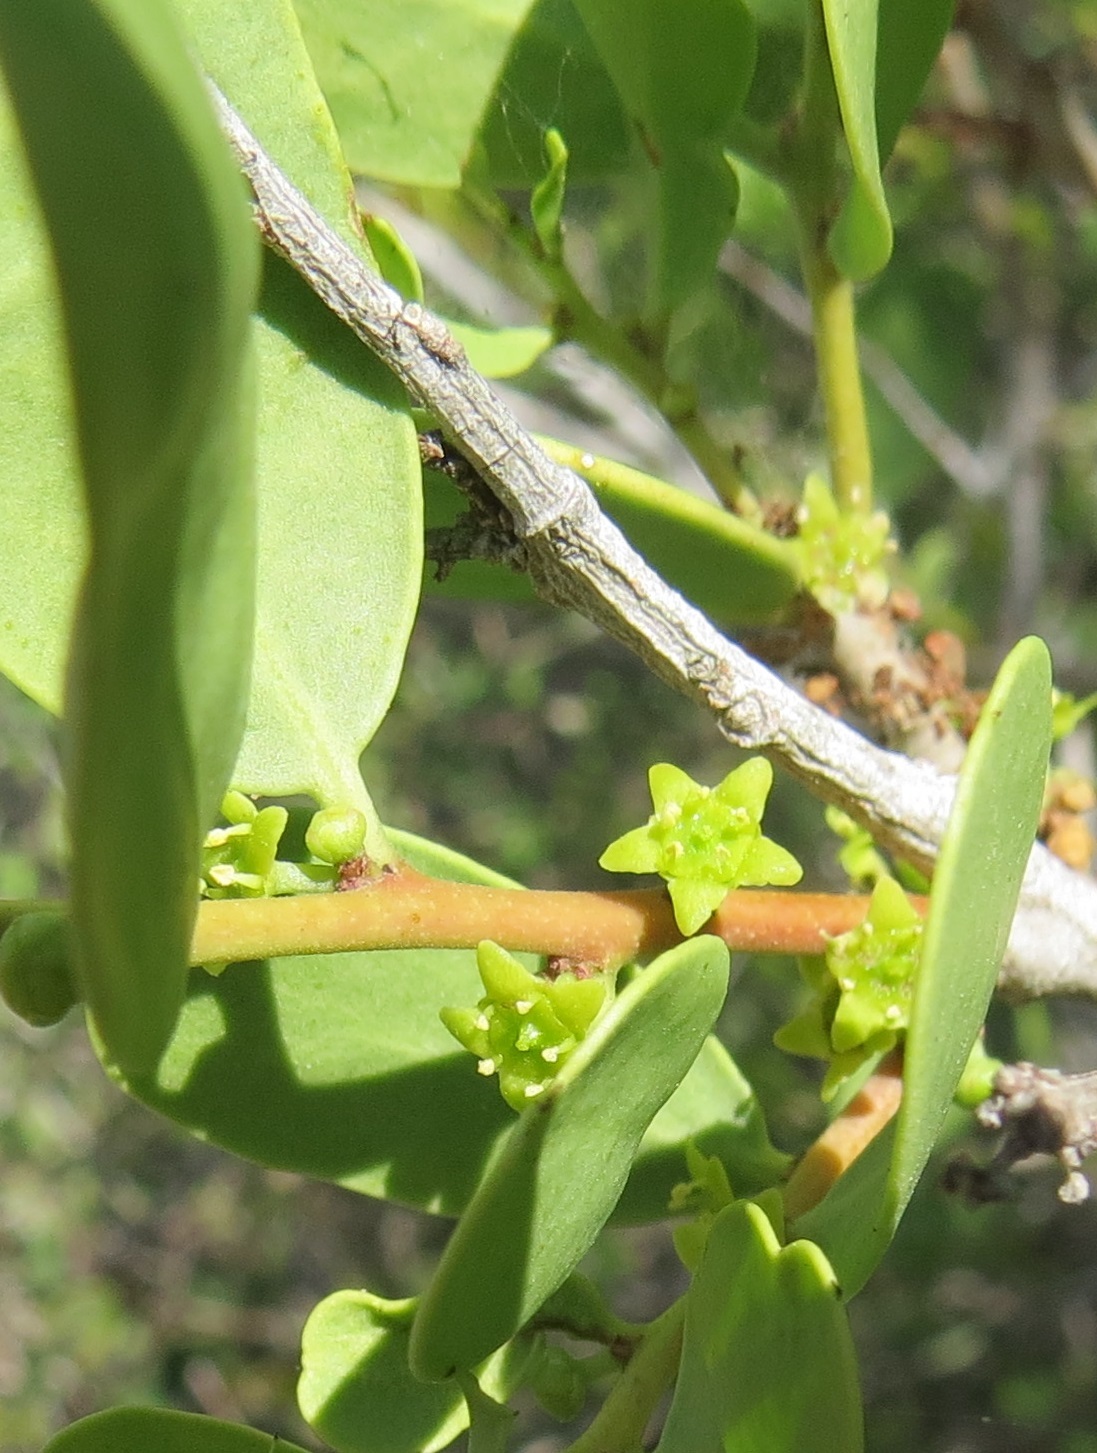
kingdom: Plantae
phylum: Tracheophyta
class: Magnoliopsida
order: Celastrales
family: Celastraceae
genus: Tricerma
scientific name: Tricerma phyllanthoides
